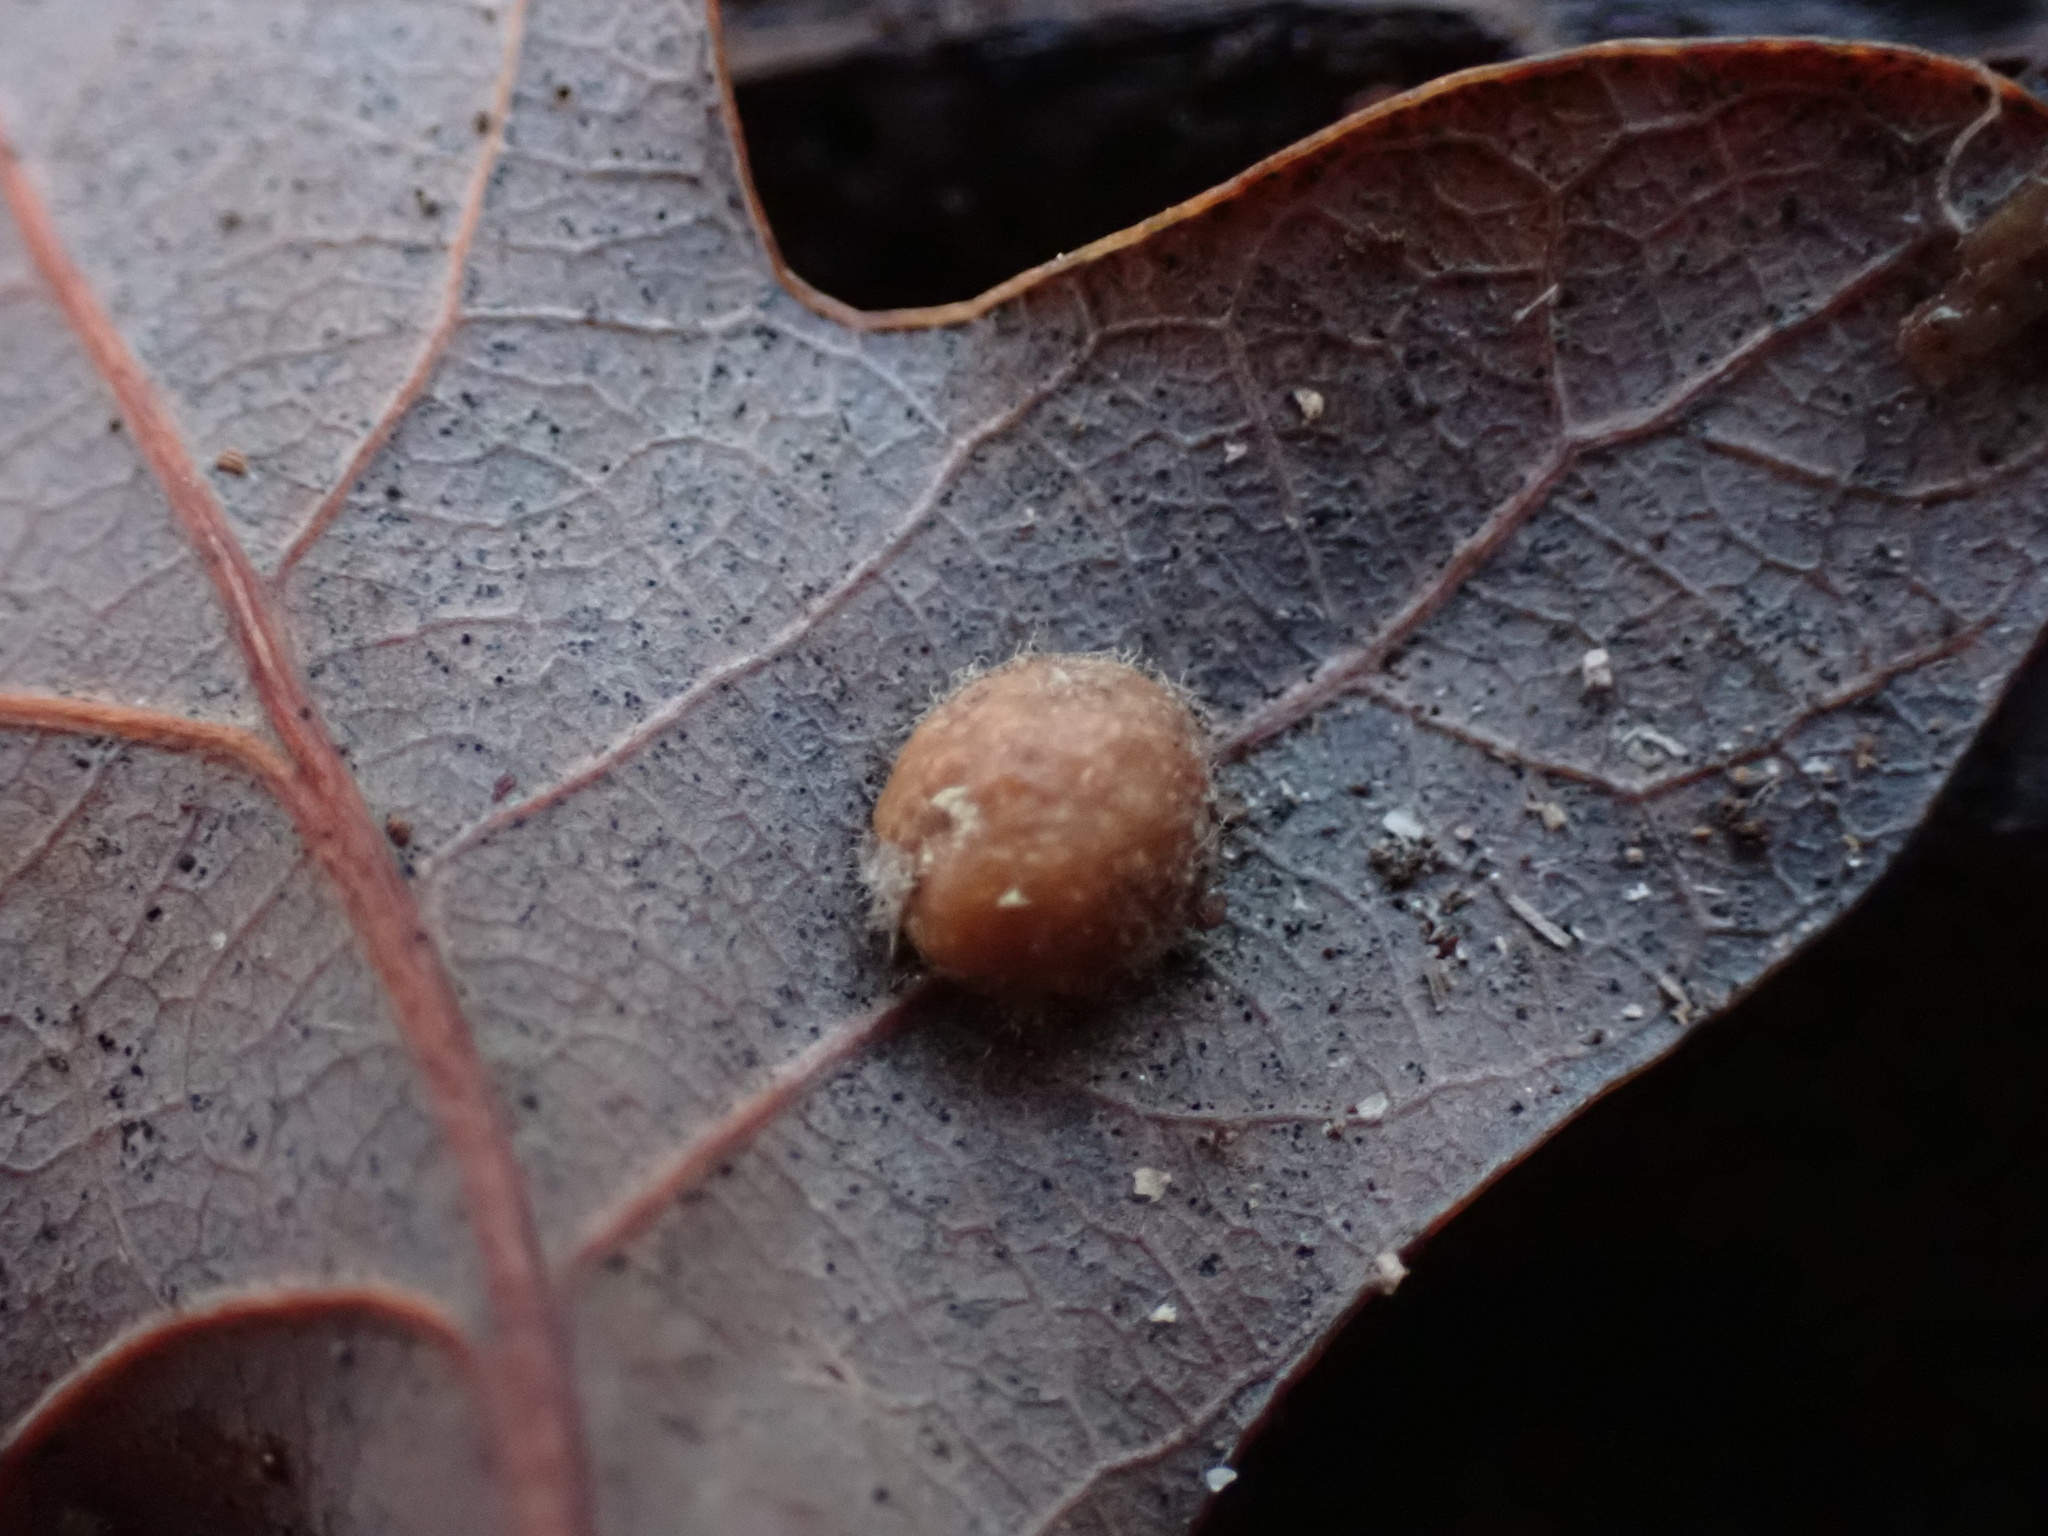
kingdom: Animalia
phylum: Arthropoda
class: Insecta
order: Hymenoptera
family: Cynipidae
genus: Philonix
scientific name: Philonix fulvicollis
